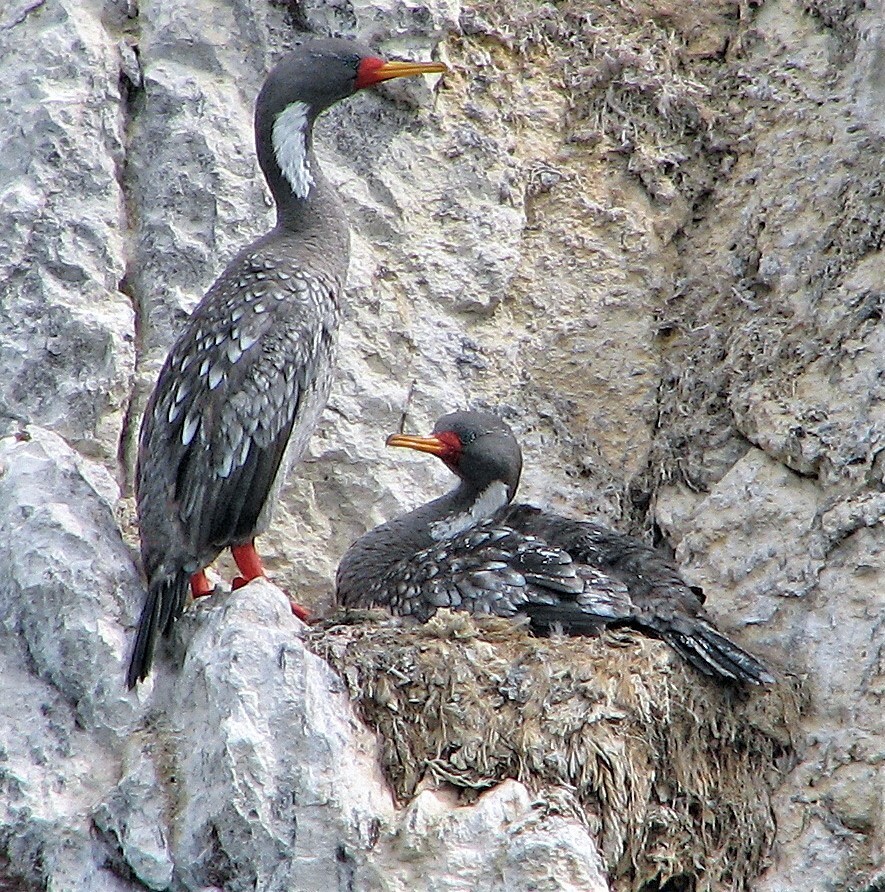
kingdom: Animalia
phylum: Chordata
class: Aves
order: Suliformes
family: Phalacrocoracidae
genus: Phalacrocorax
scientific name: Phalacrocorax gaimardi
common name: Red-legged cormorant
